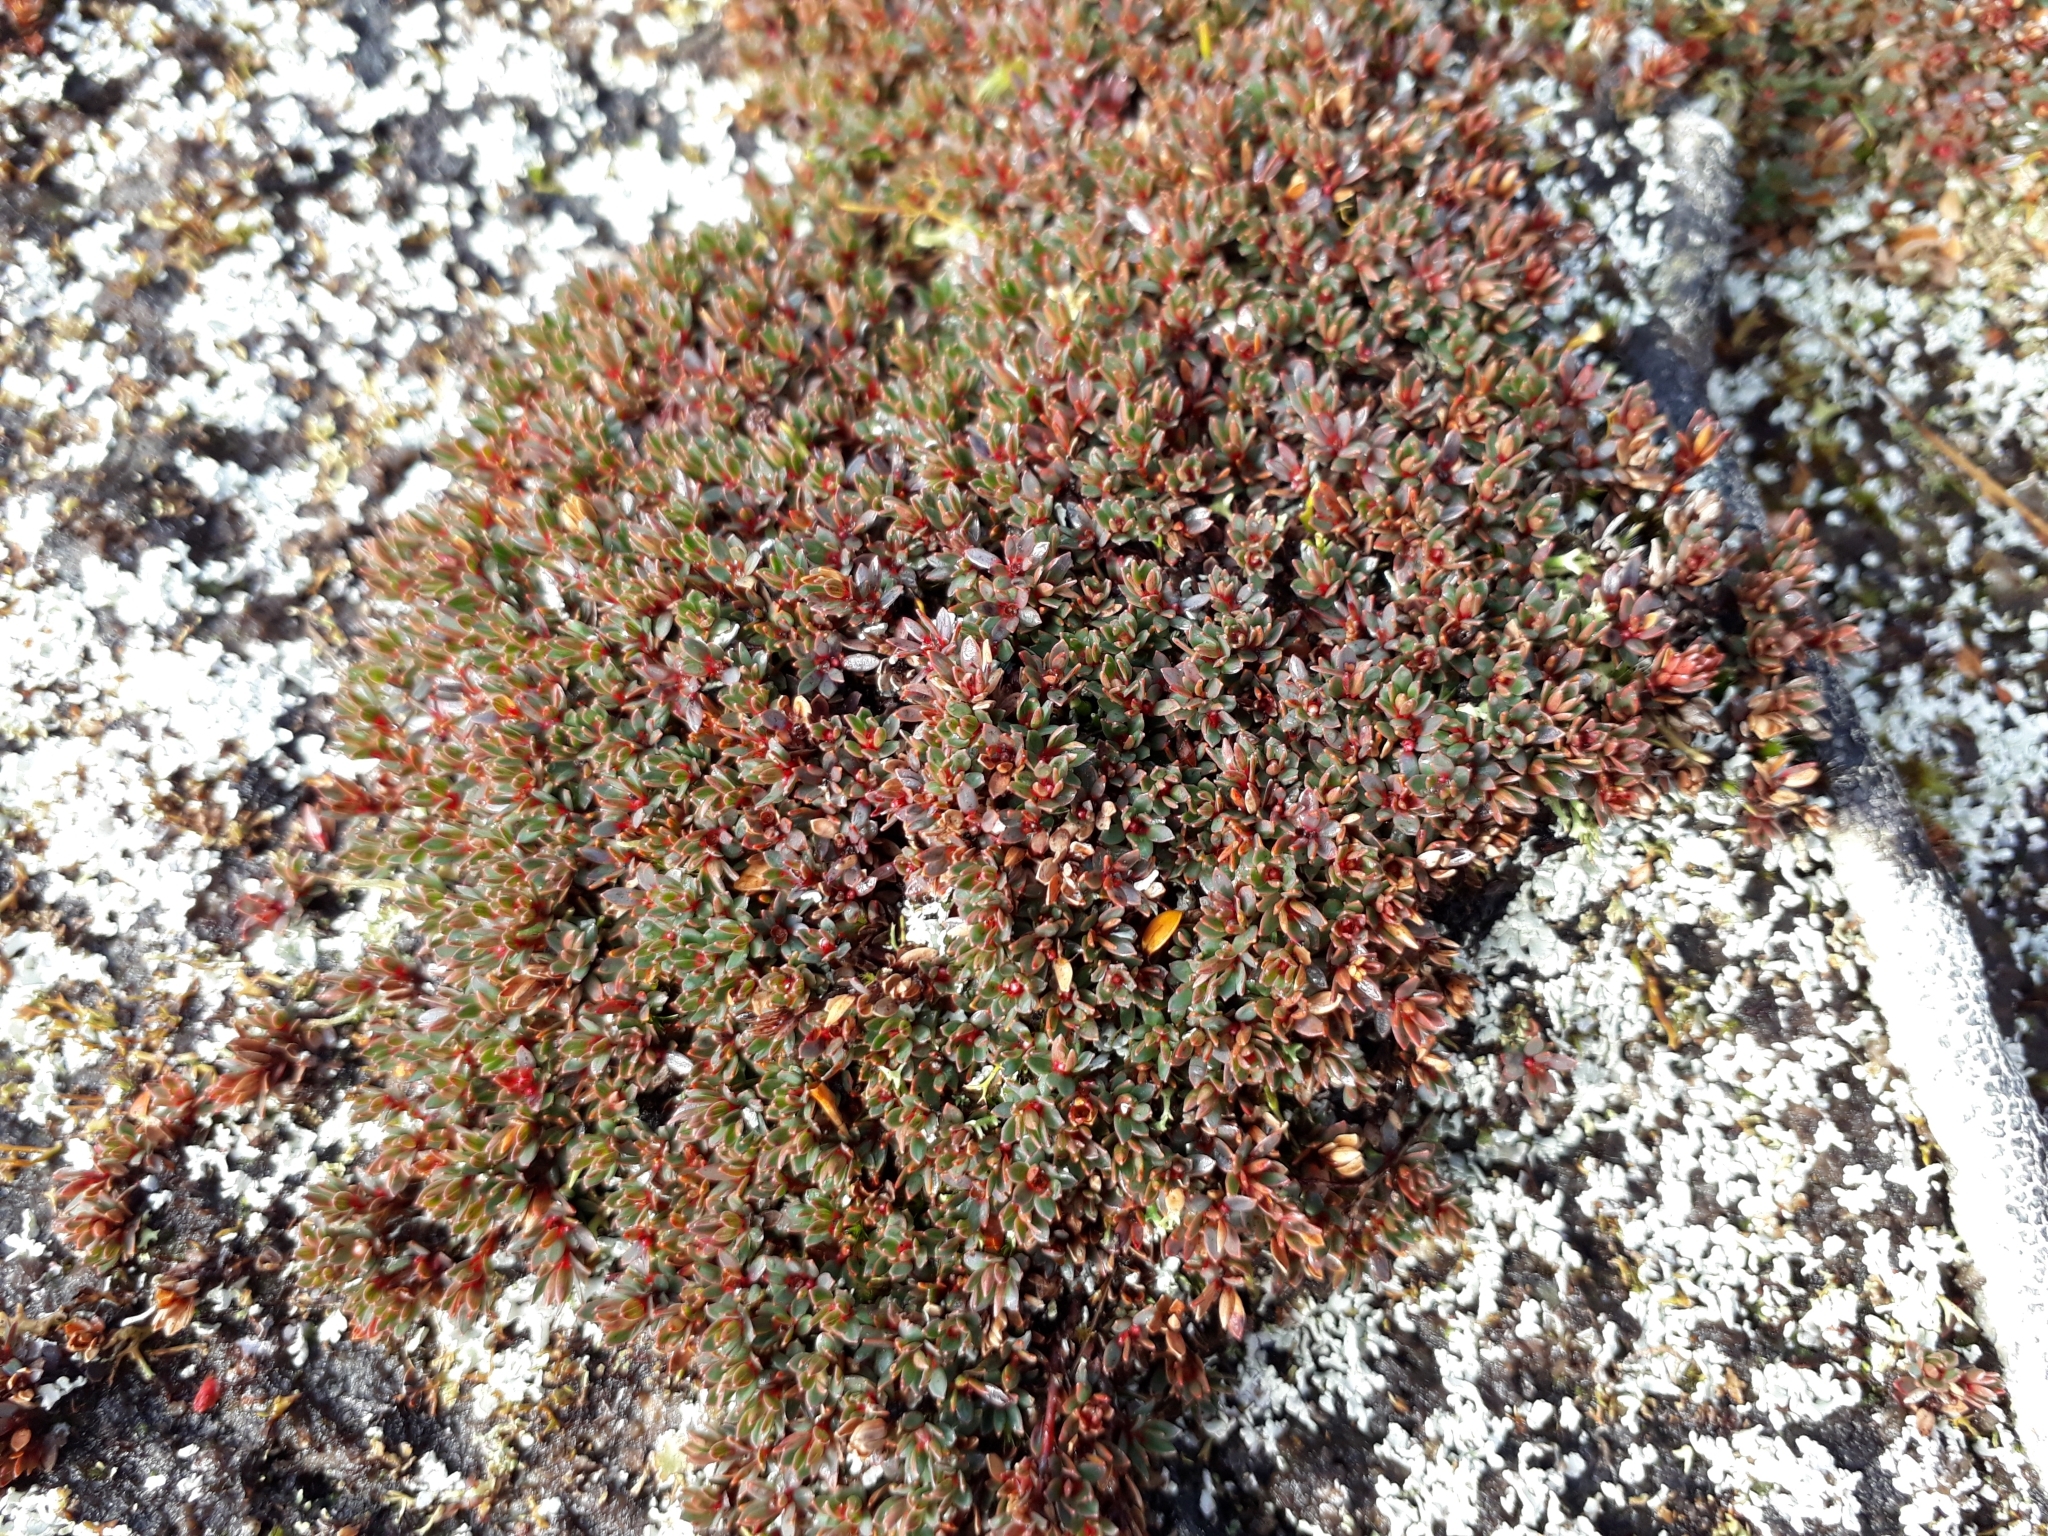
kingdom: Plantae
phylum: Tracheophyta
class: Magnoliopsida
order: Ericales
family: Ericaceae
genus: Pentachondra
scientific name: Pentachondra pumila
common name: Carpet-heath
